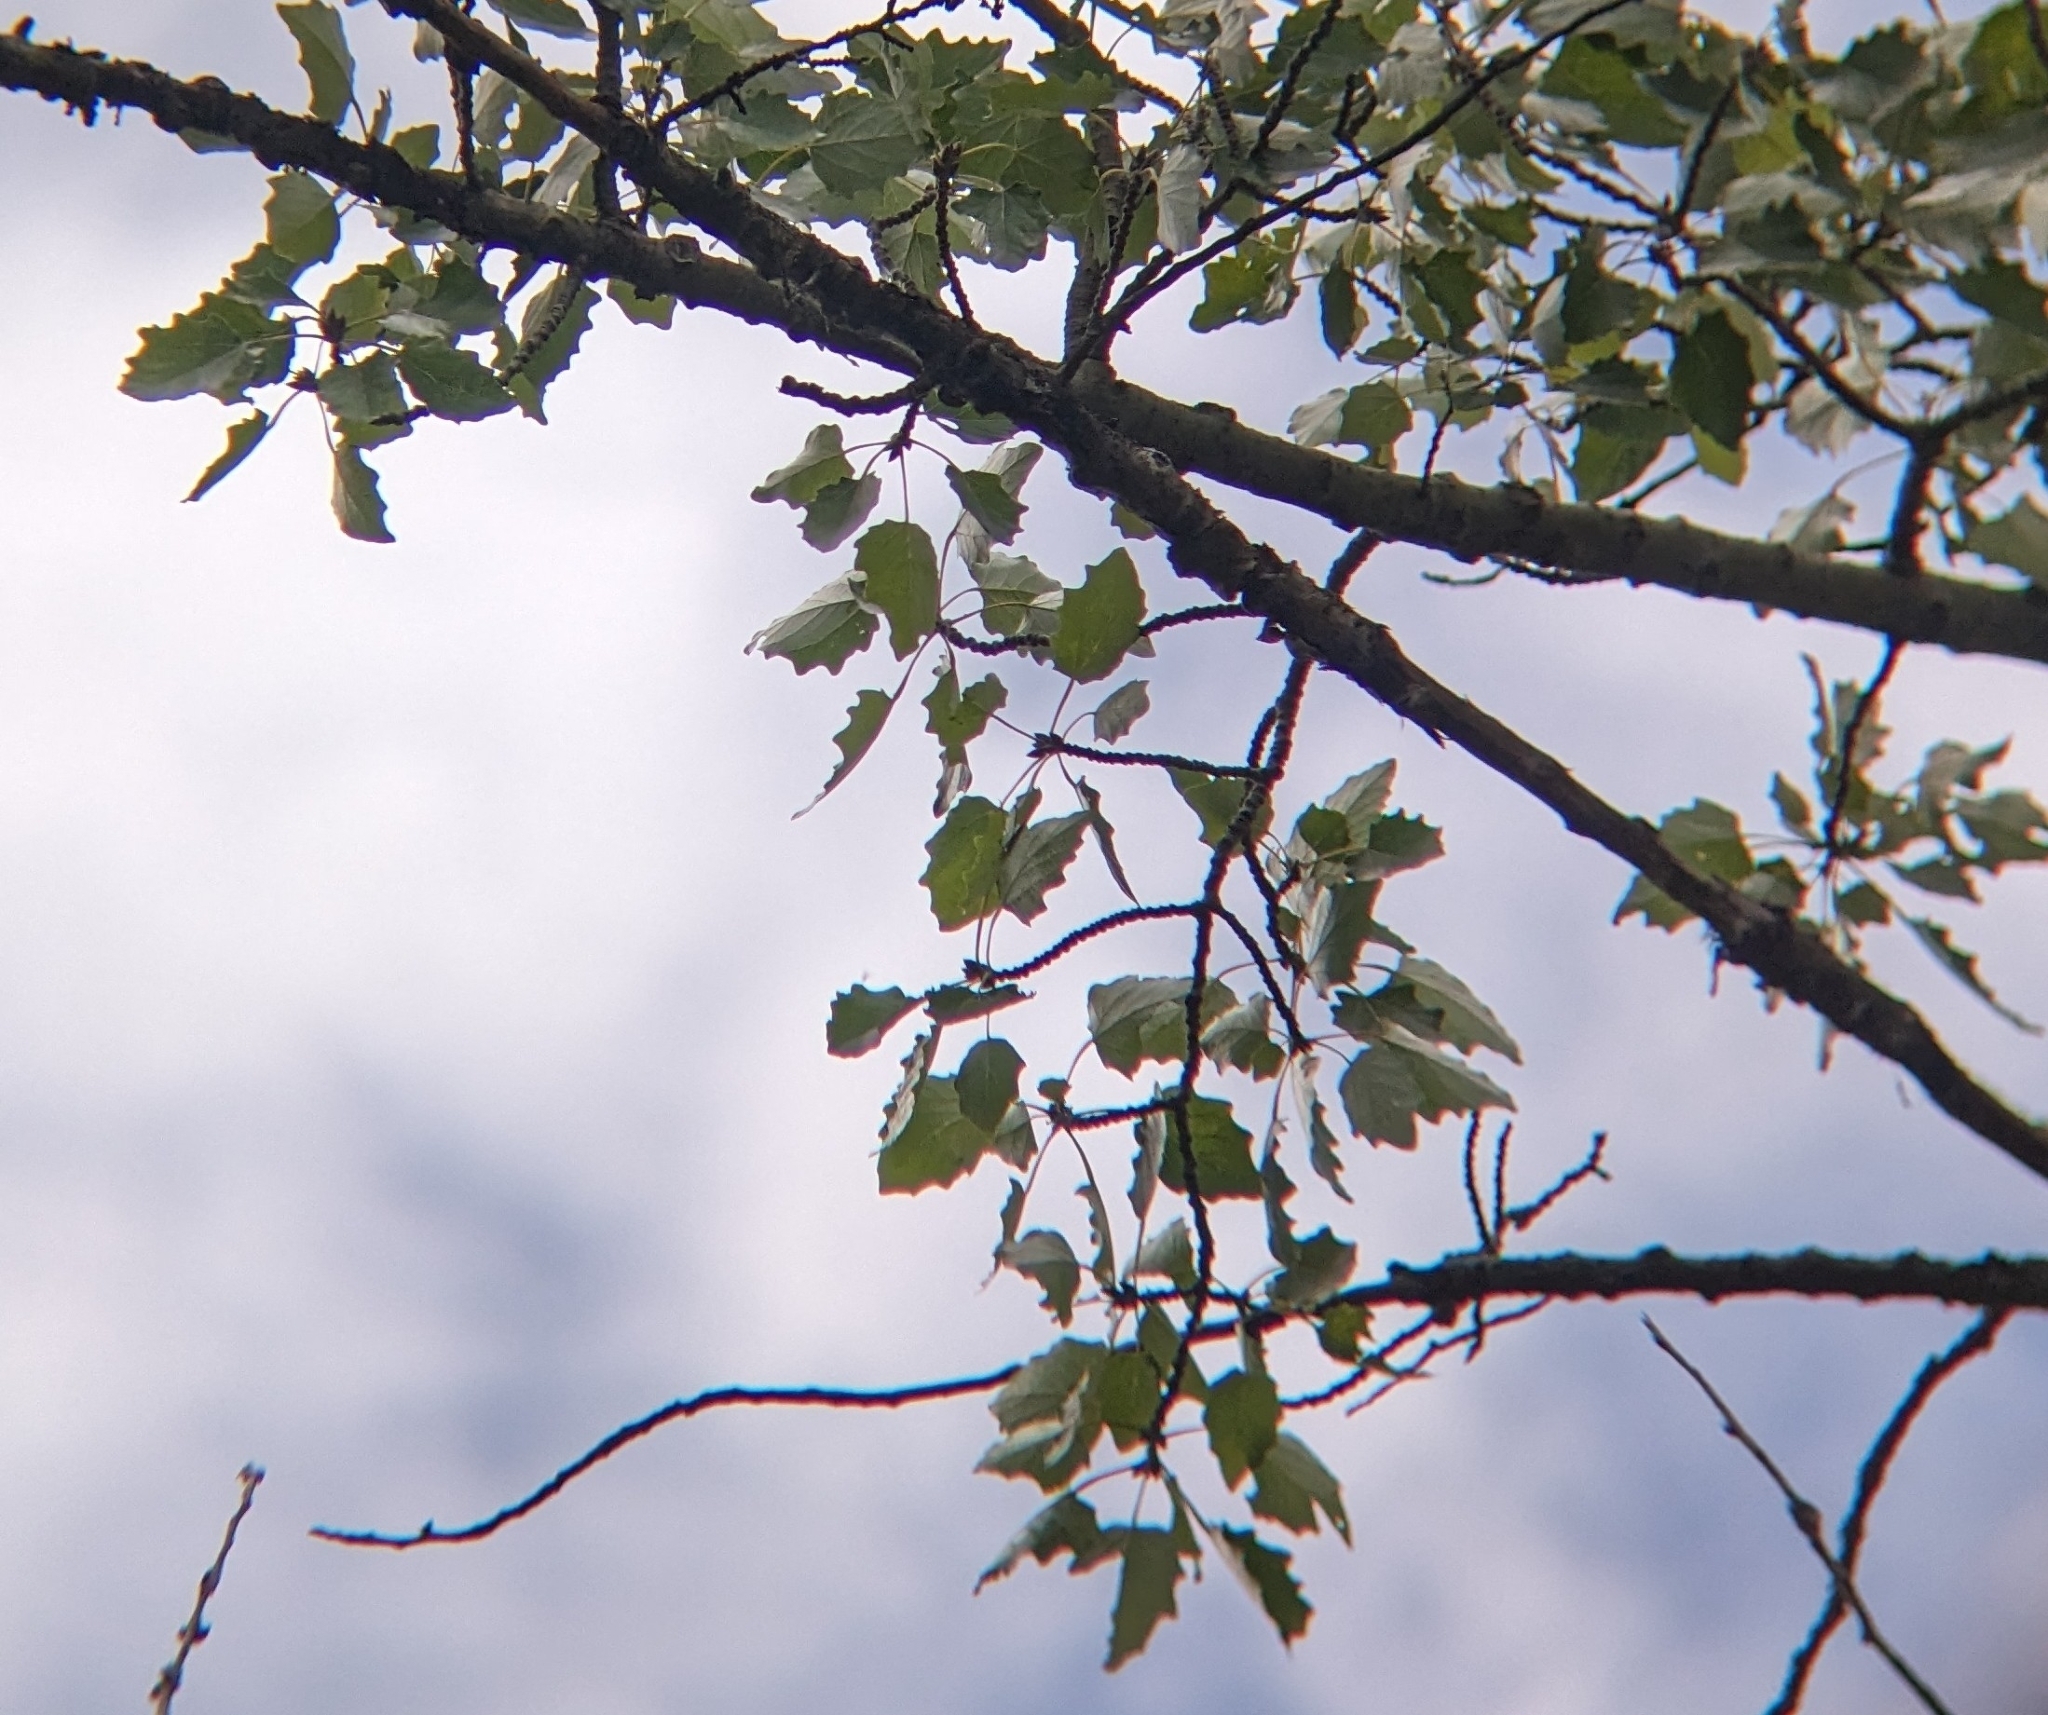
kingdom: Plantae
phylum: Tracheophyta
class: Magnoliopsida
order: Malpighiales
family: Salicaceae
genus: Populus
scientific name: Populus rouleauiana
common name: Rouleau's aspen
